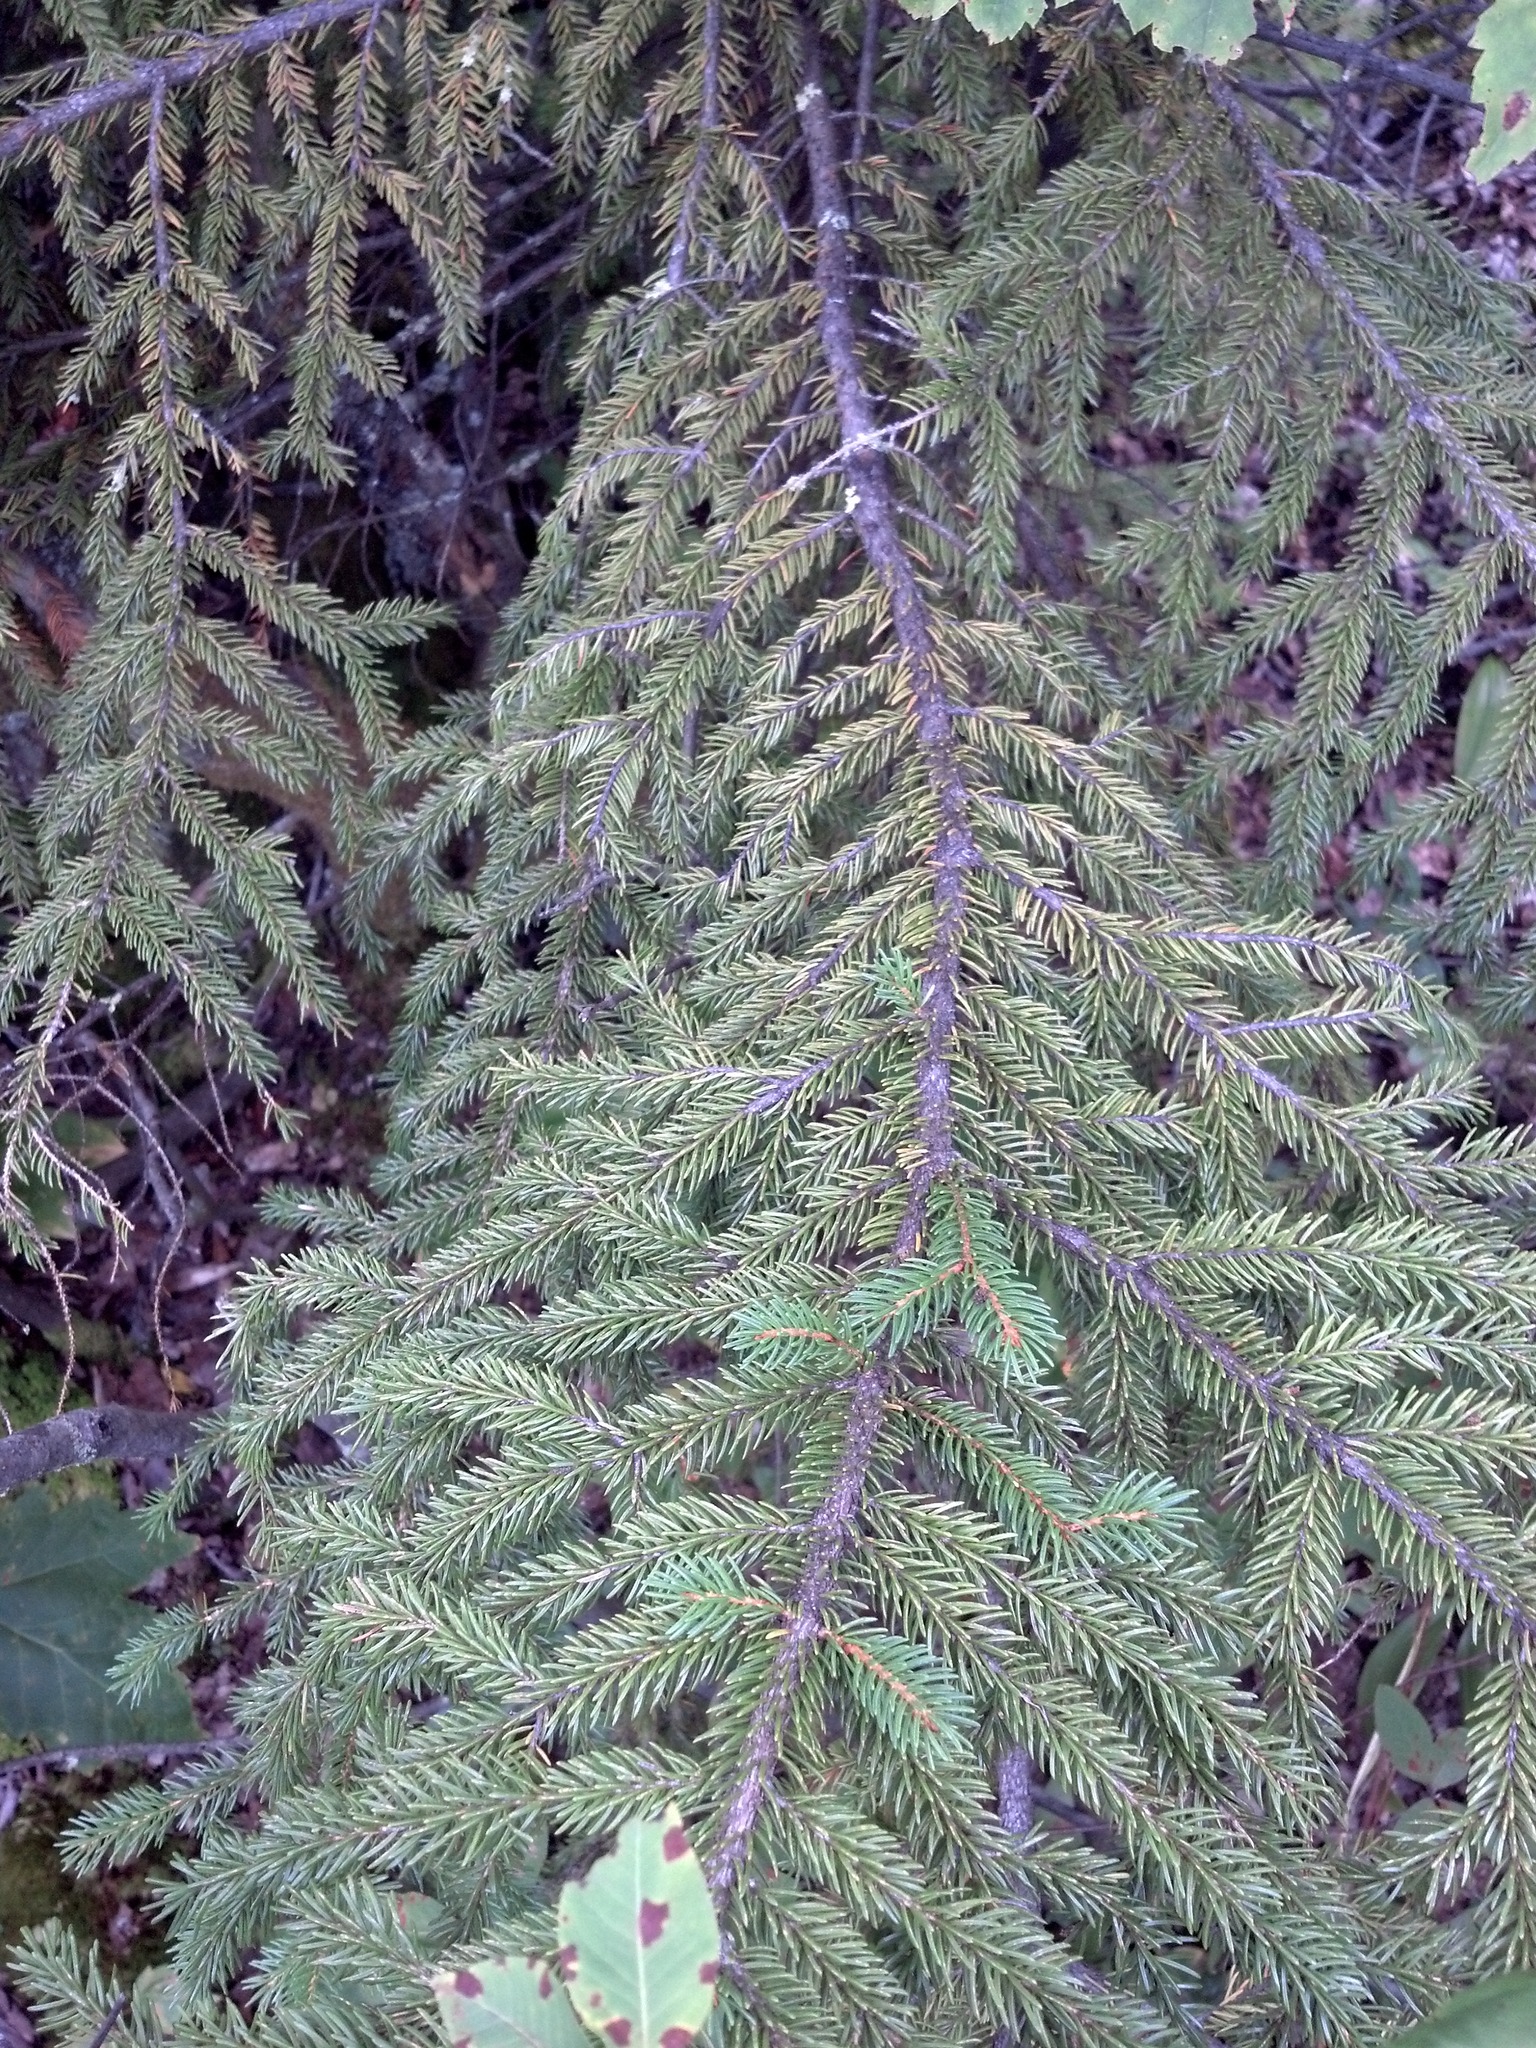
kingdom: Plantae
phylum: Tracheophyta
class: Pinopsida
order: Pinales
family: Pinaceae
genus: Picea
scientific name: Picea rubens
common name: Red spruce
